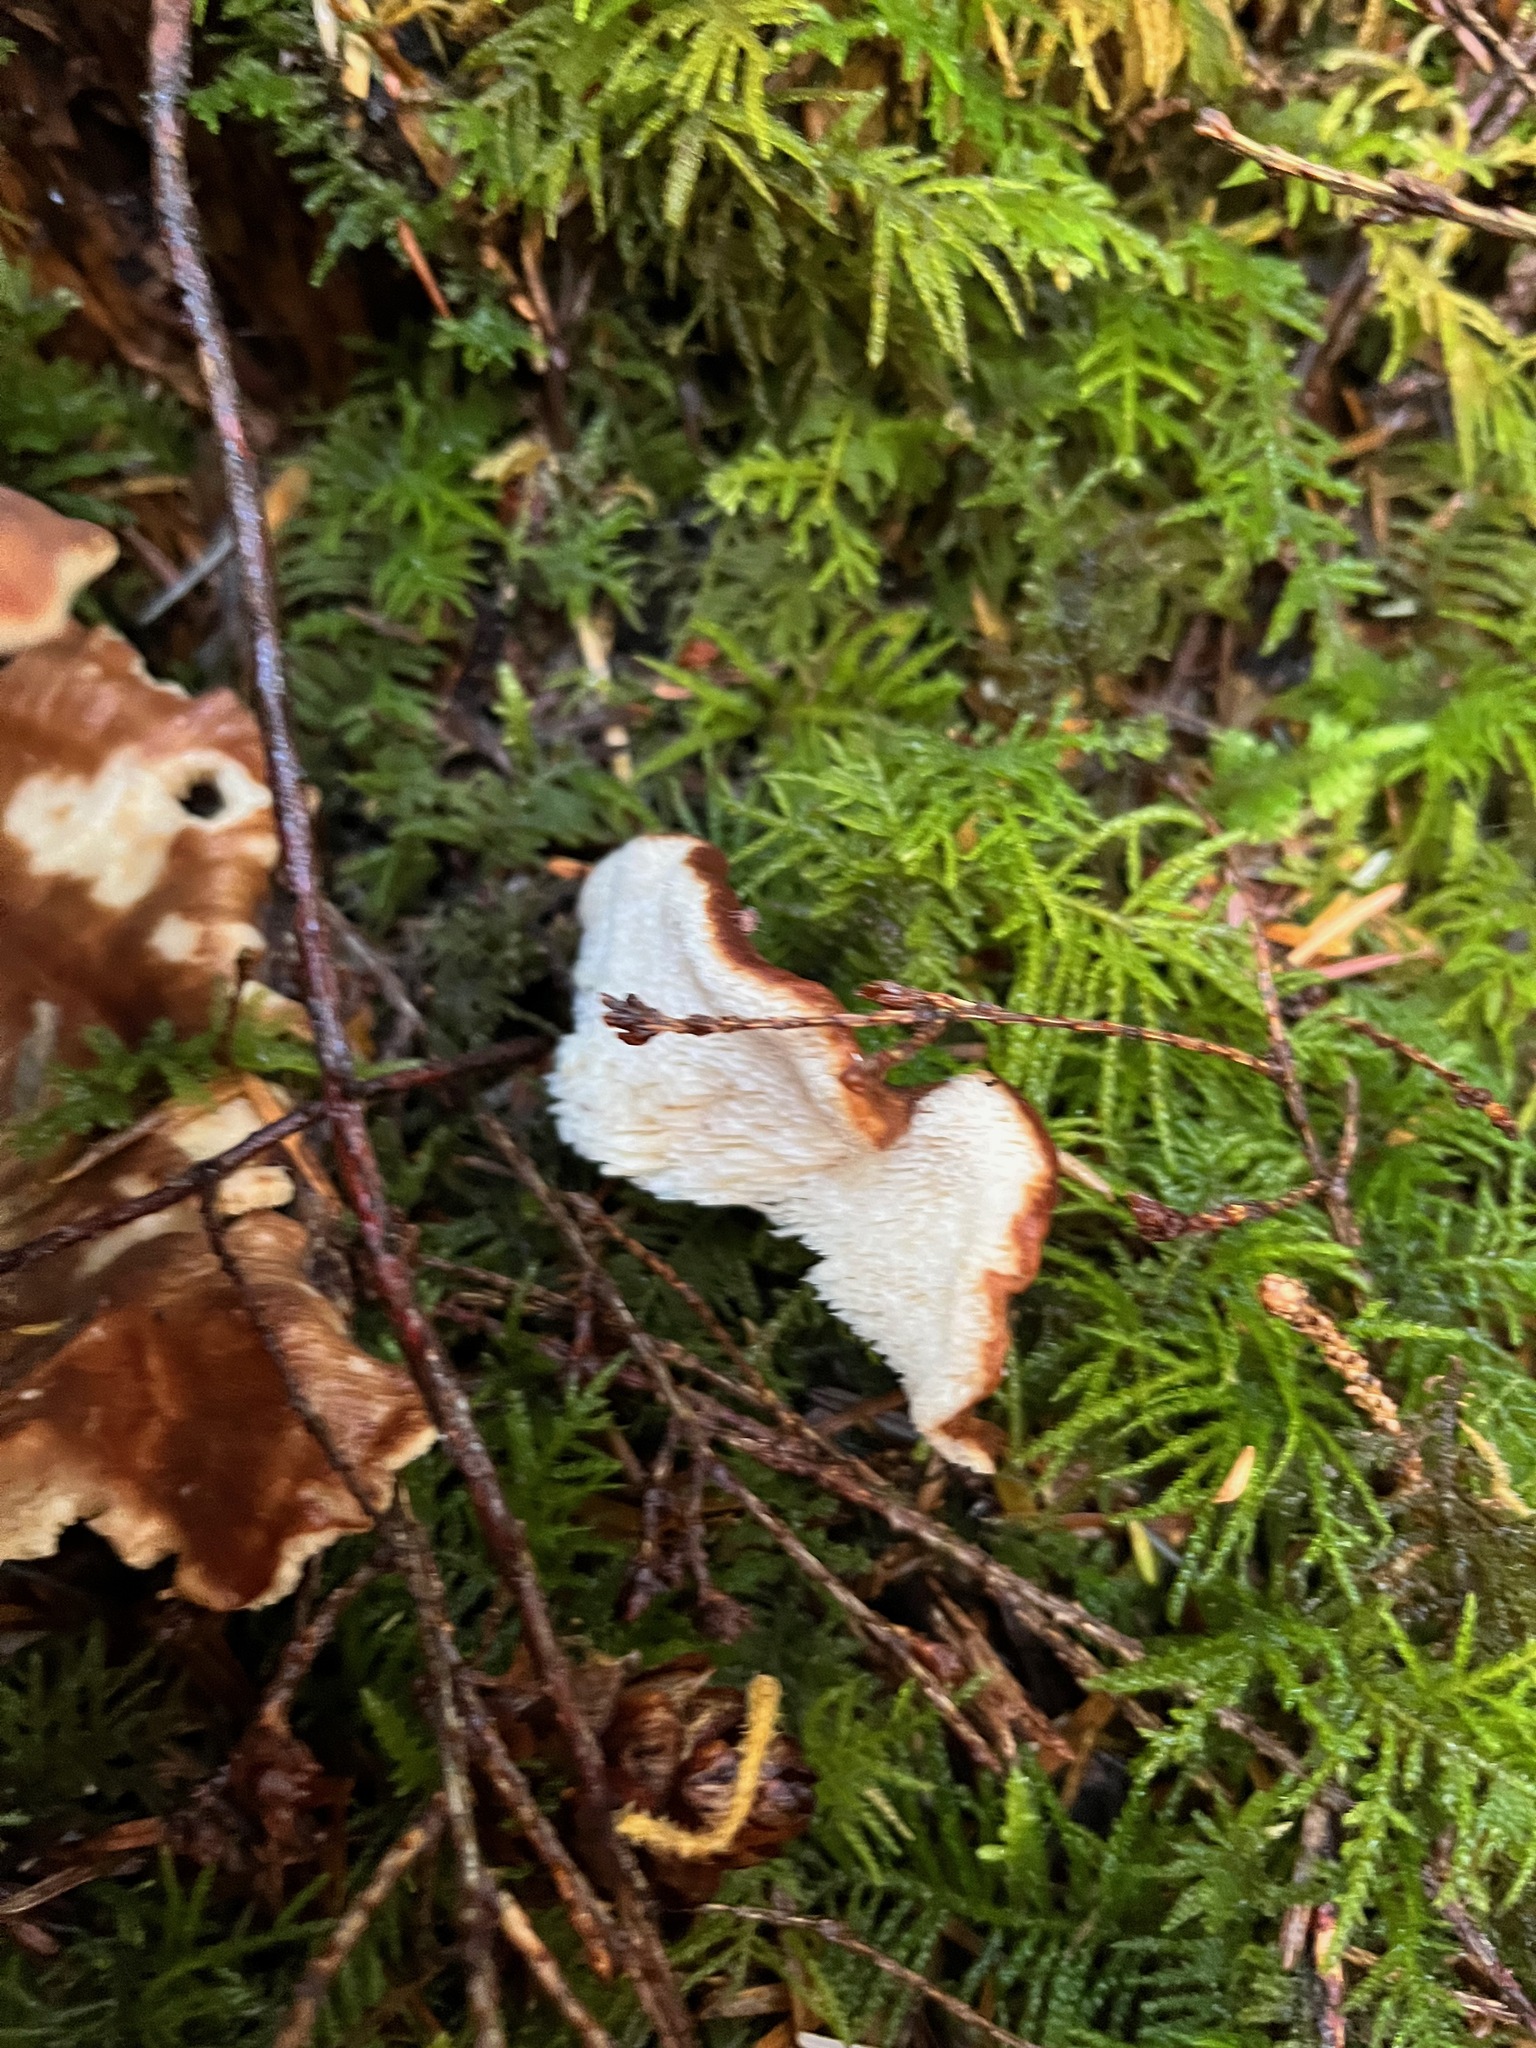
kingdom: Fungi
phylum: Basidiomycota
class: Agaricomycetes
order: Russulales
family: Bondarzewiaceae
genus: Bondarzewia
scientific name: Bondarzewia occidentalis
